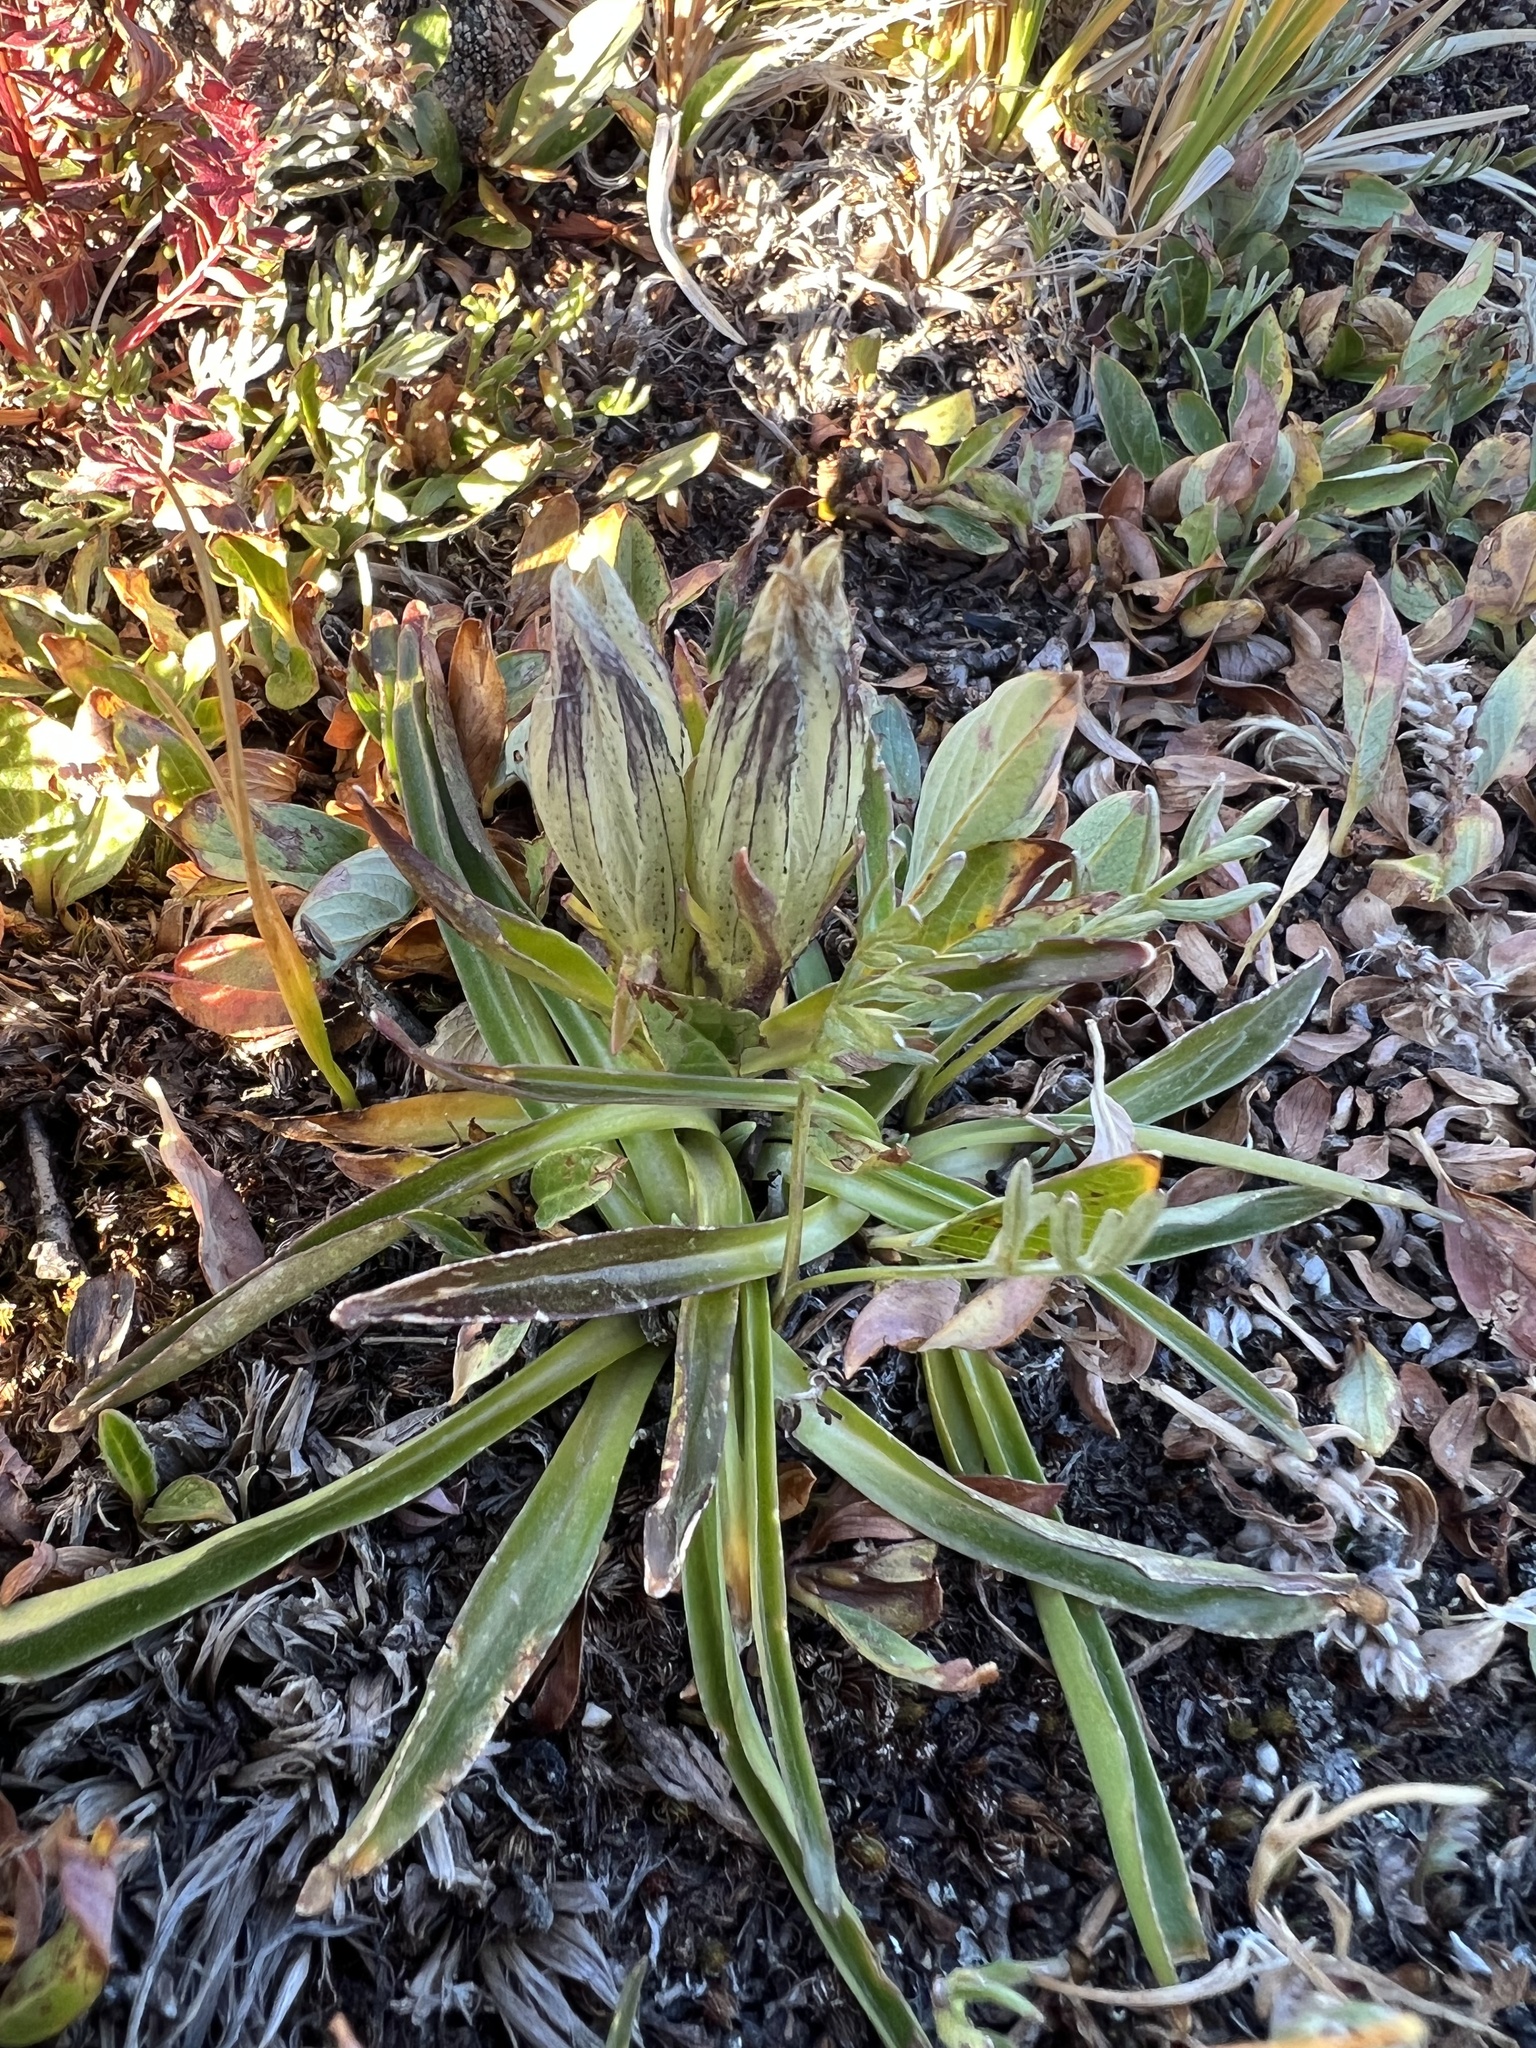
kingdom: Plantae
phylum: Tracheophyta
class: Magnoliopsida
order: Gentianales
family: Gentianaceae
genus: Gentiana
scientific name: Gentiana algida
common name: Arctic gentian
